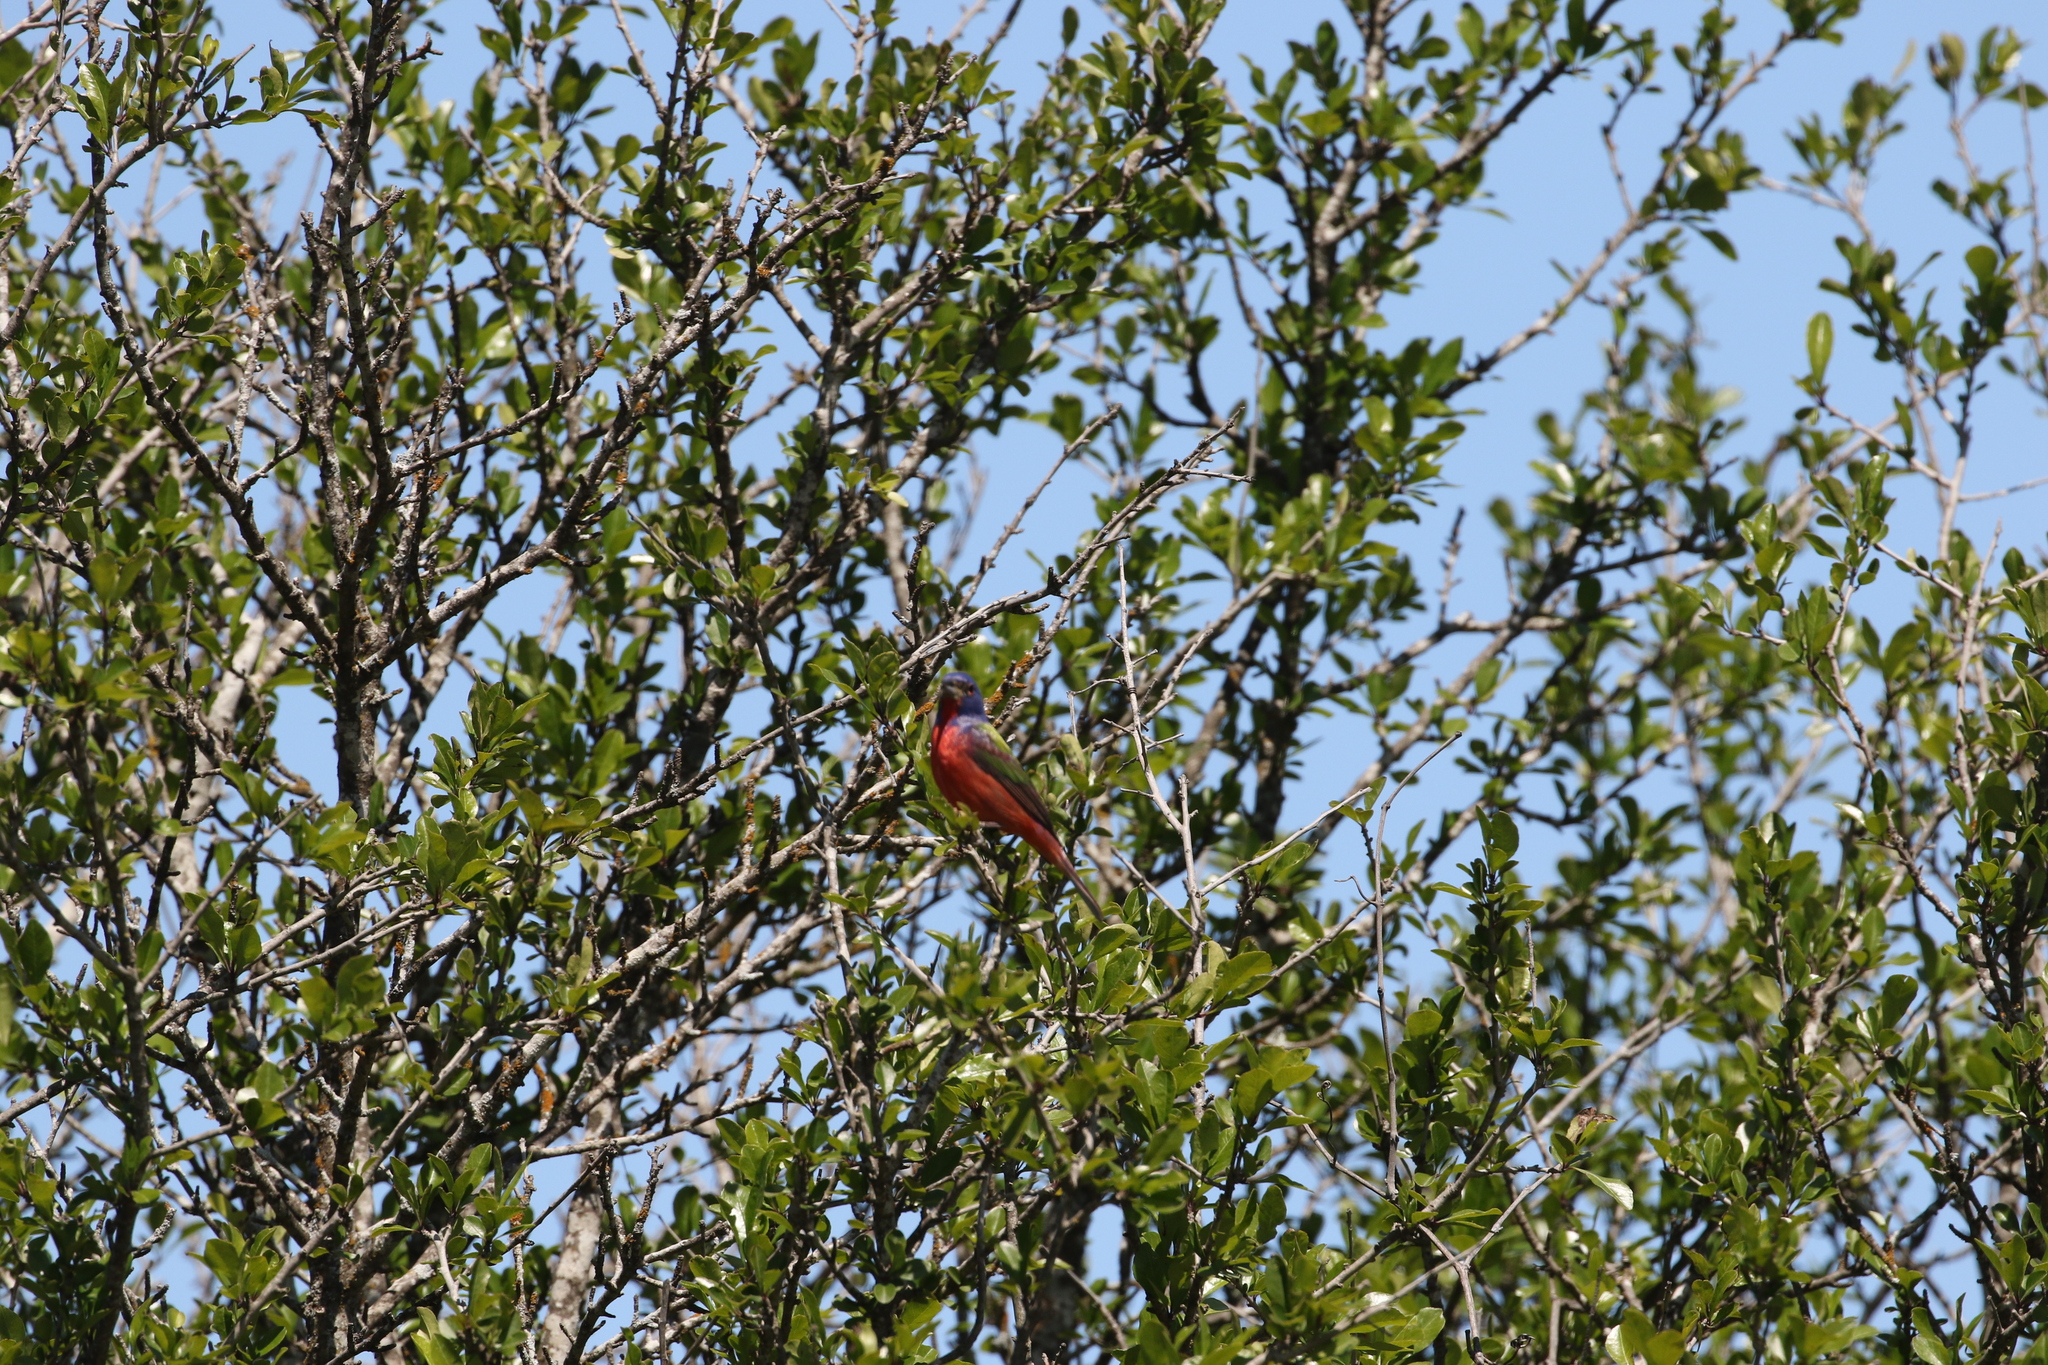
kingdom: Animalia
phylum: Chordata
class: Aves
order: Passeriformes
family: Cardinalidae
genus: Passerina
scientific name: Passerina ciris
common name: Painted bunting
